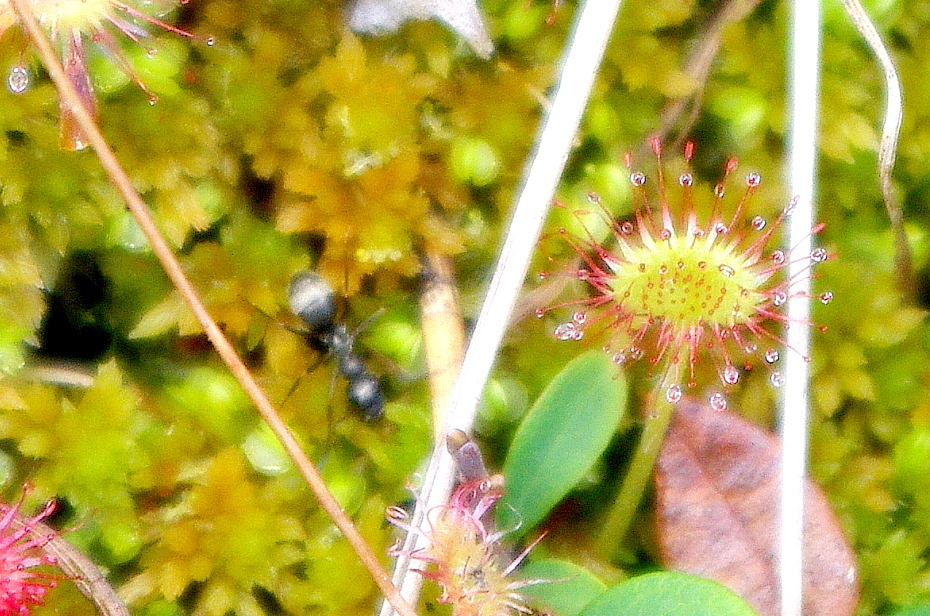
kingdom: Plantae
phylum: Tracheophyta
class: Magnoliopsida
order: Caryophyllales
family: Droseraceae
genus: Drosera
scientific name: Drosera rotundifolia
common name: Round-leaved sundew
